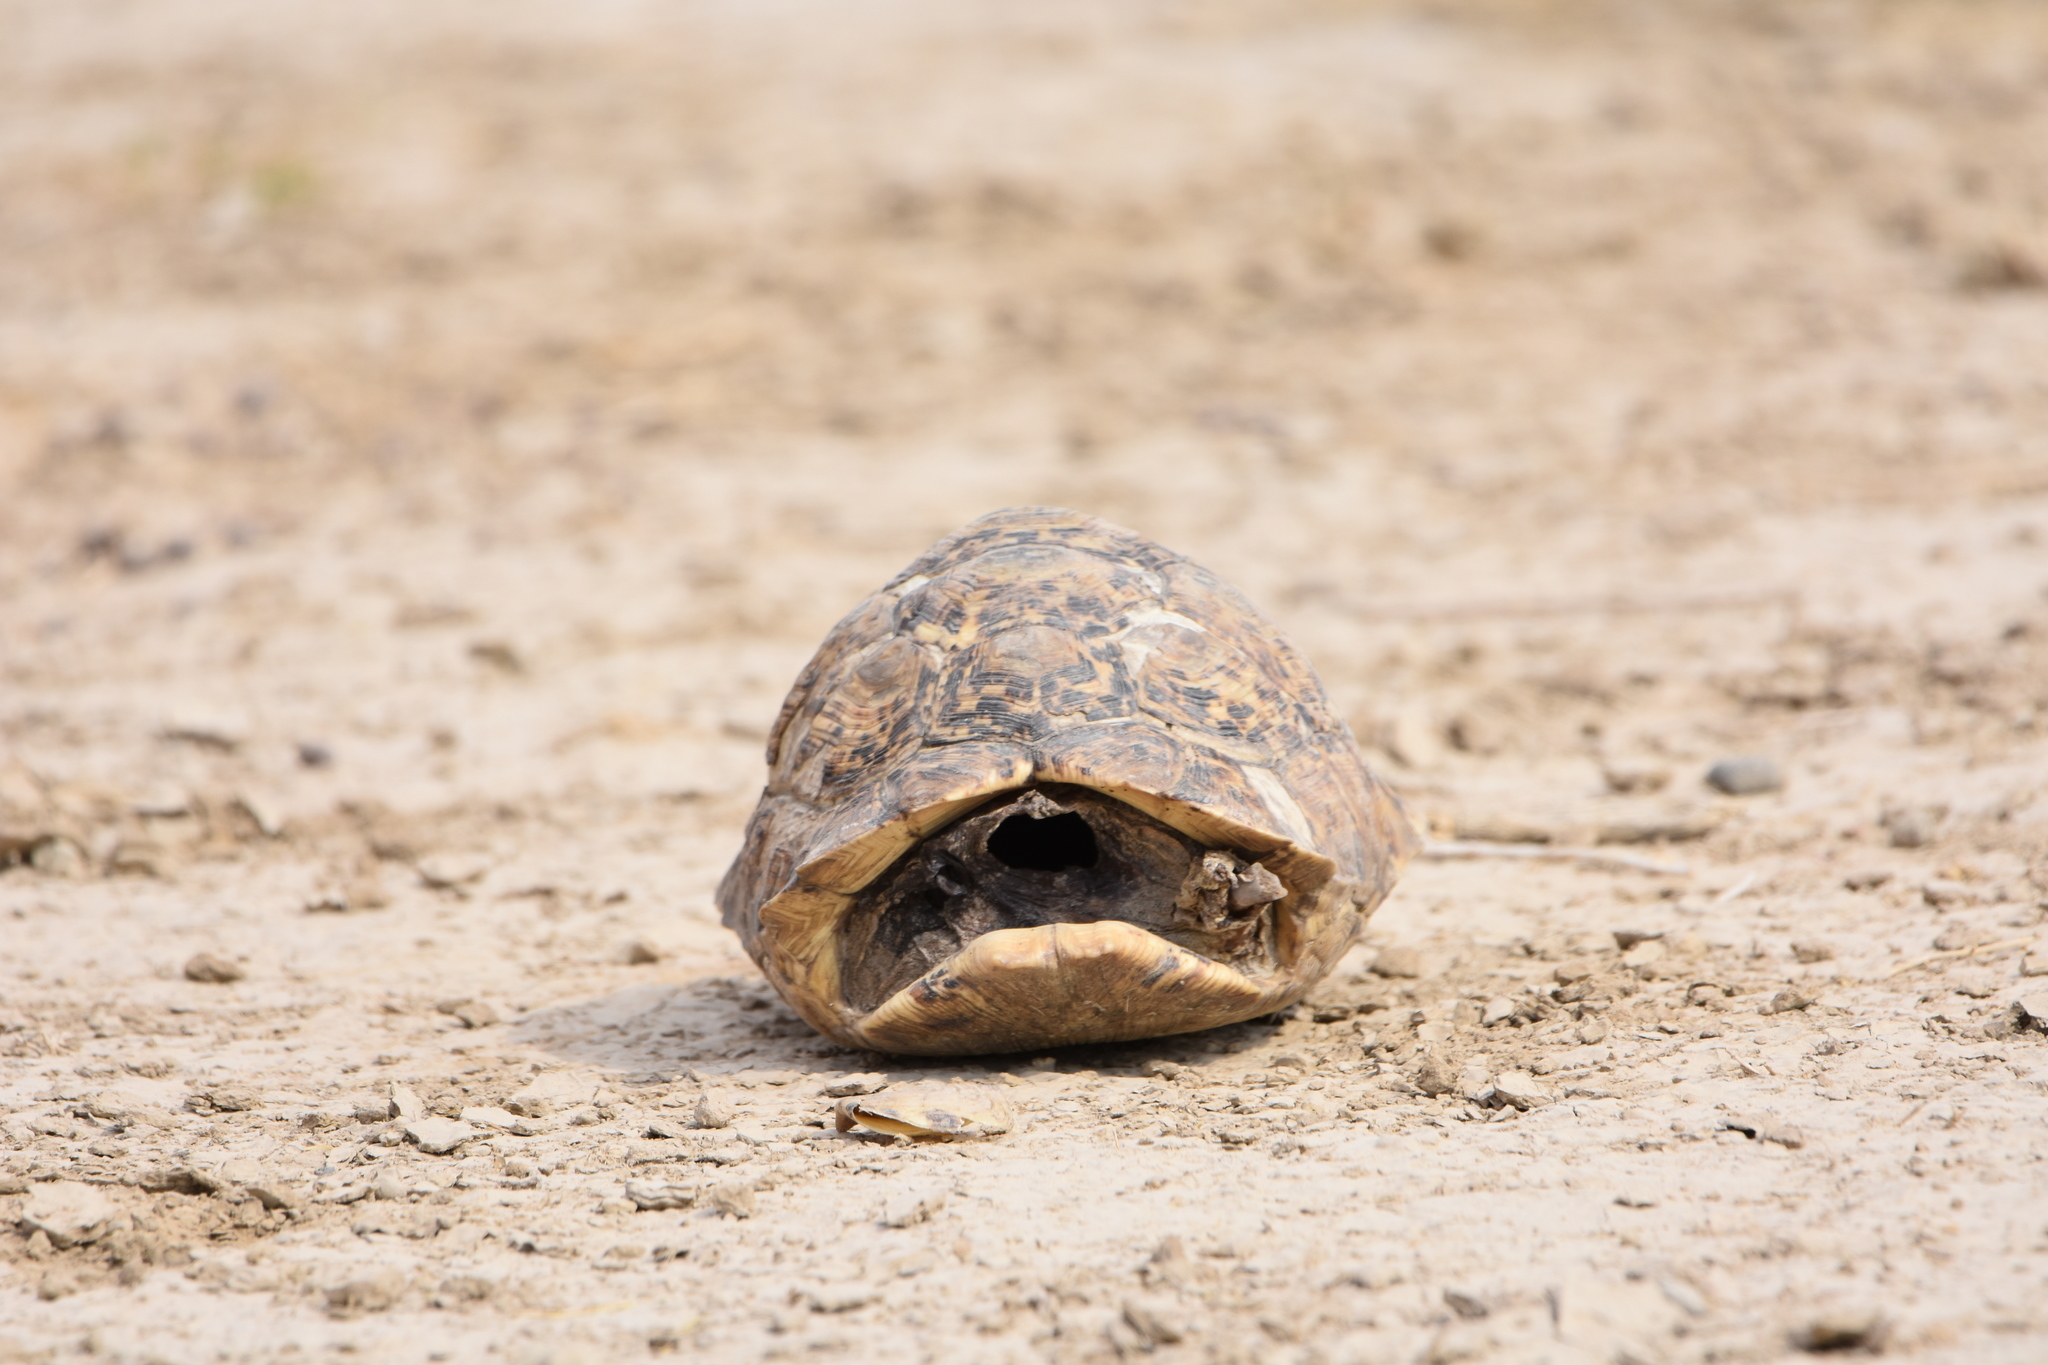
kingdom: Animalia
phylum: Chordata
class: Testudines
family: Testudinidae
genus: Stigmochelys
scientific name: Stigmochelys pardalis
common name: Leopard tortoise
